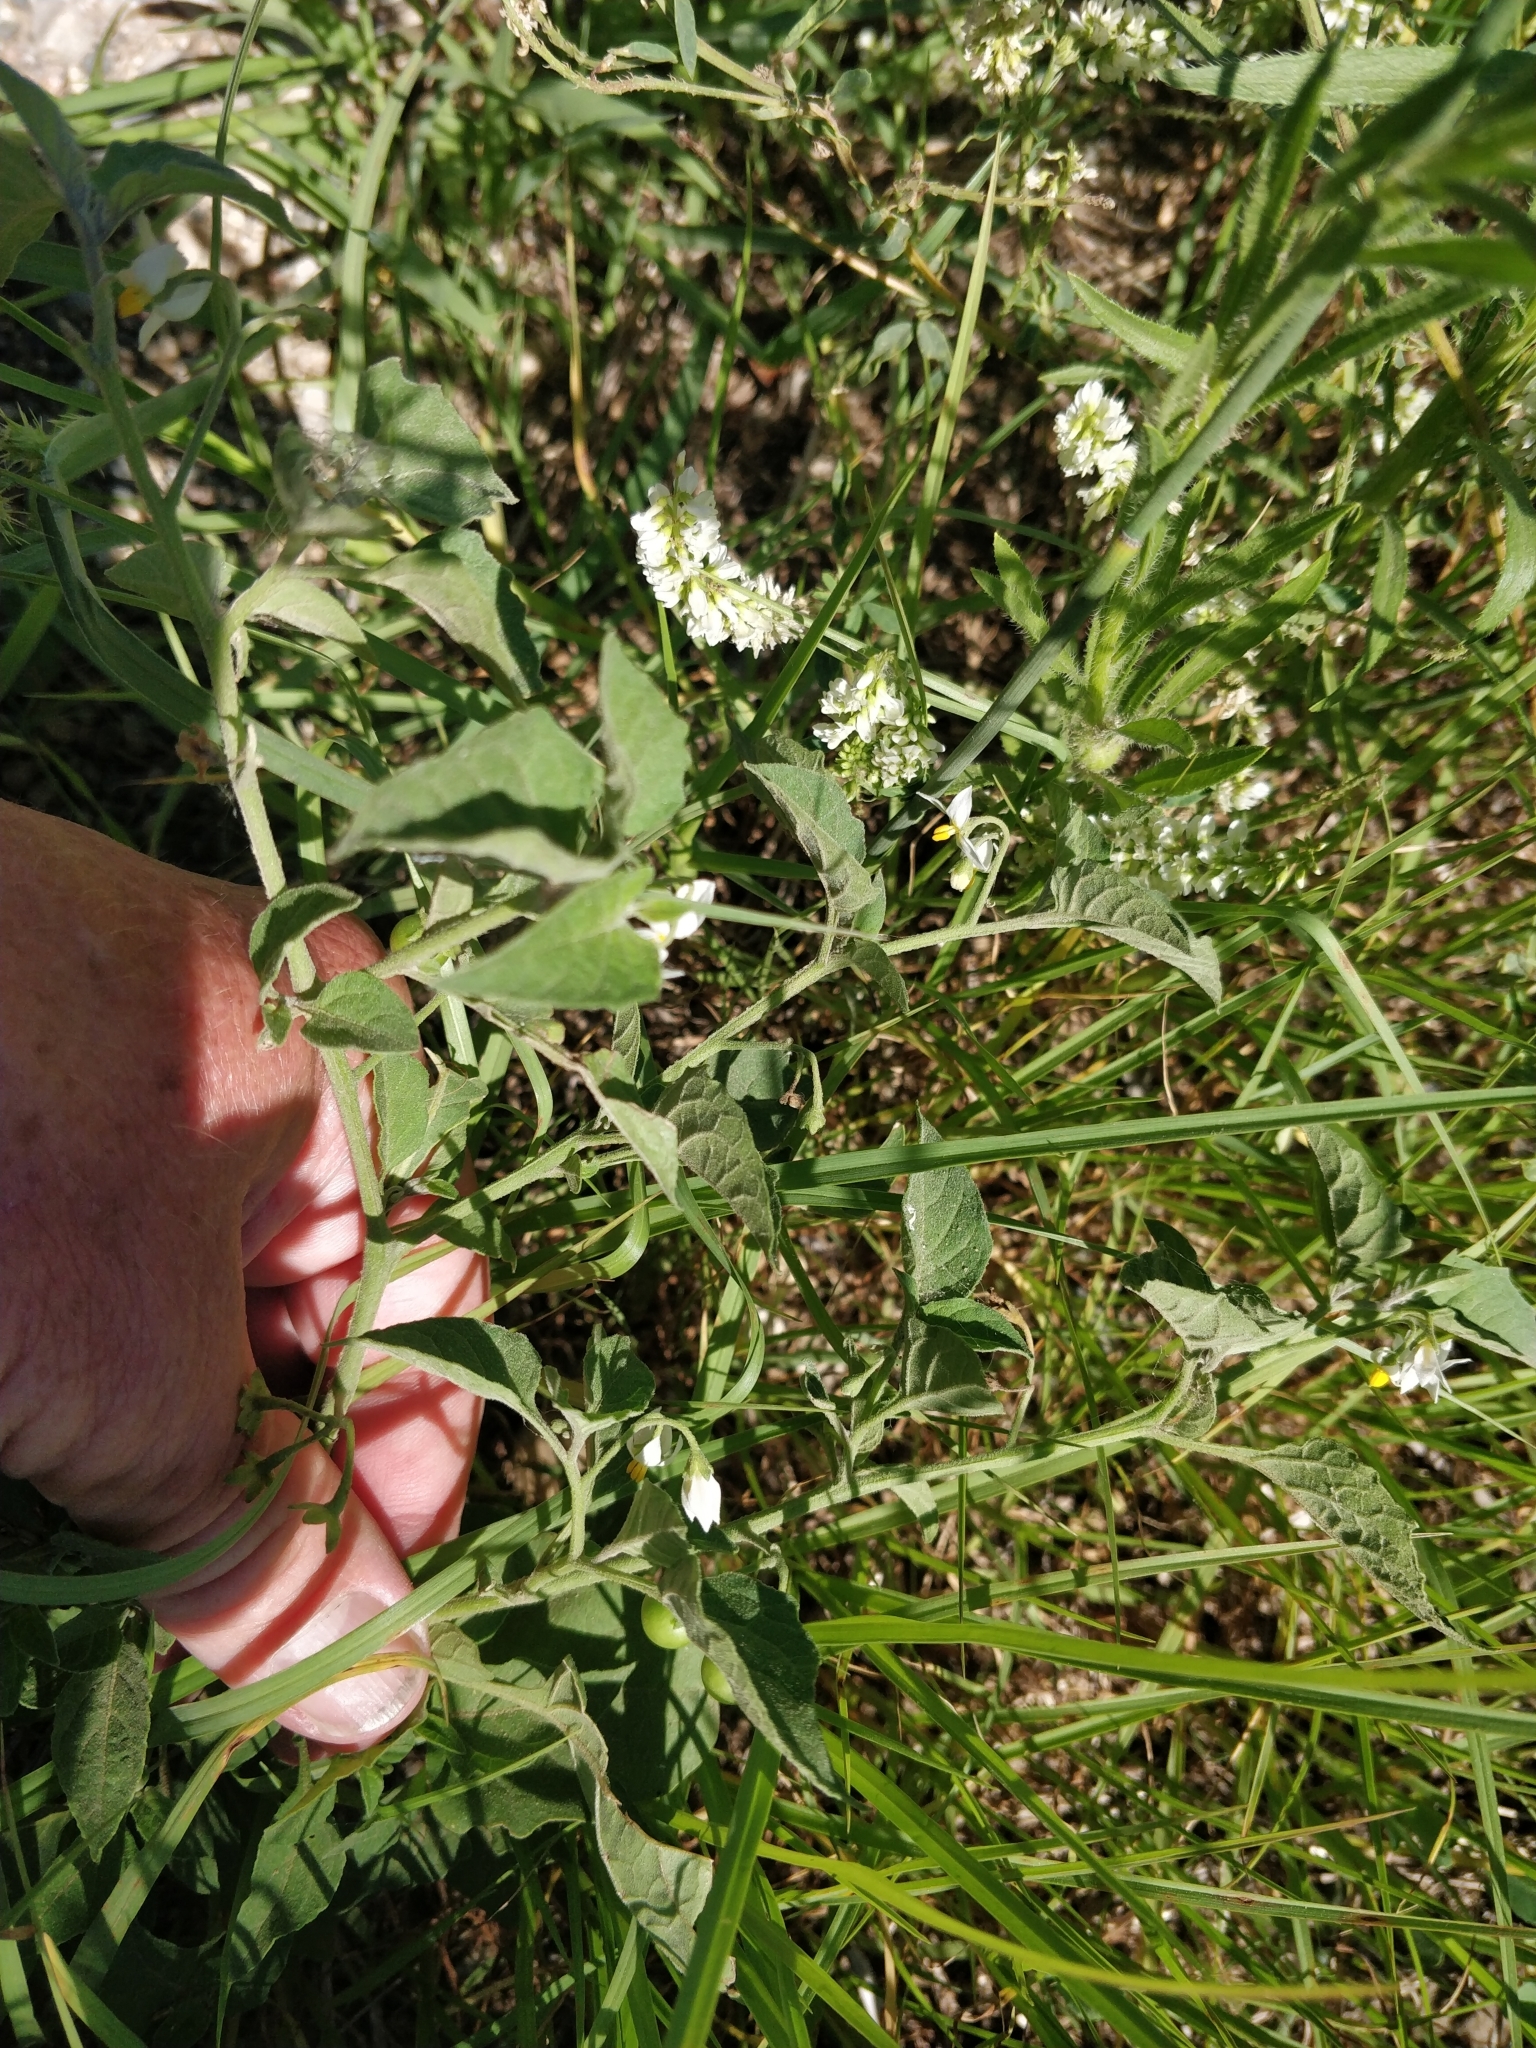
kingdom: Plantae
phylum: Tracheophyta
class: Magnoliopsida
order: Brassicales
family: Brassicaceae
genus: Berteroa
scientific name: Berteroa incana
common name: Hoary alison
